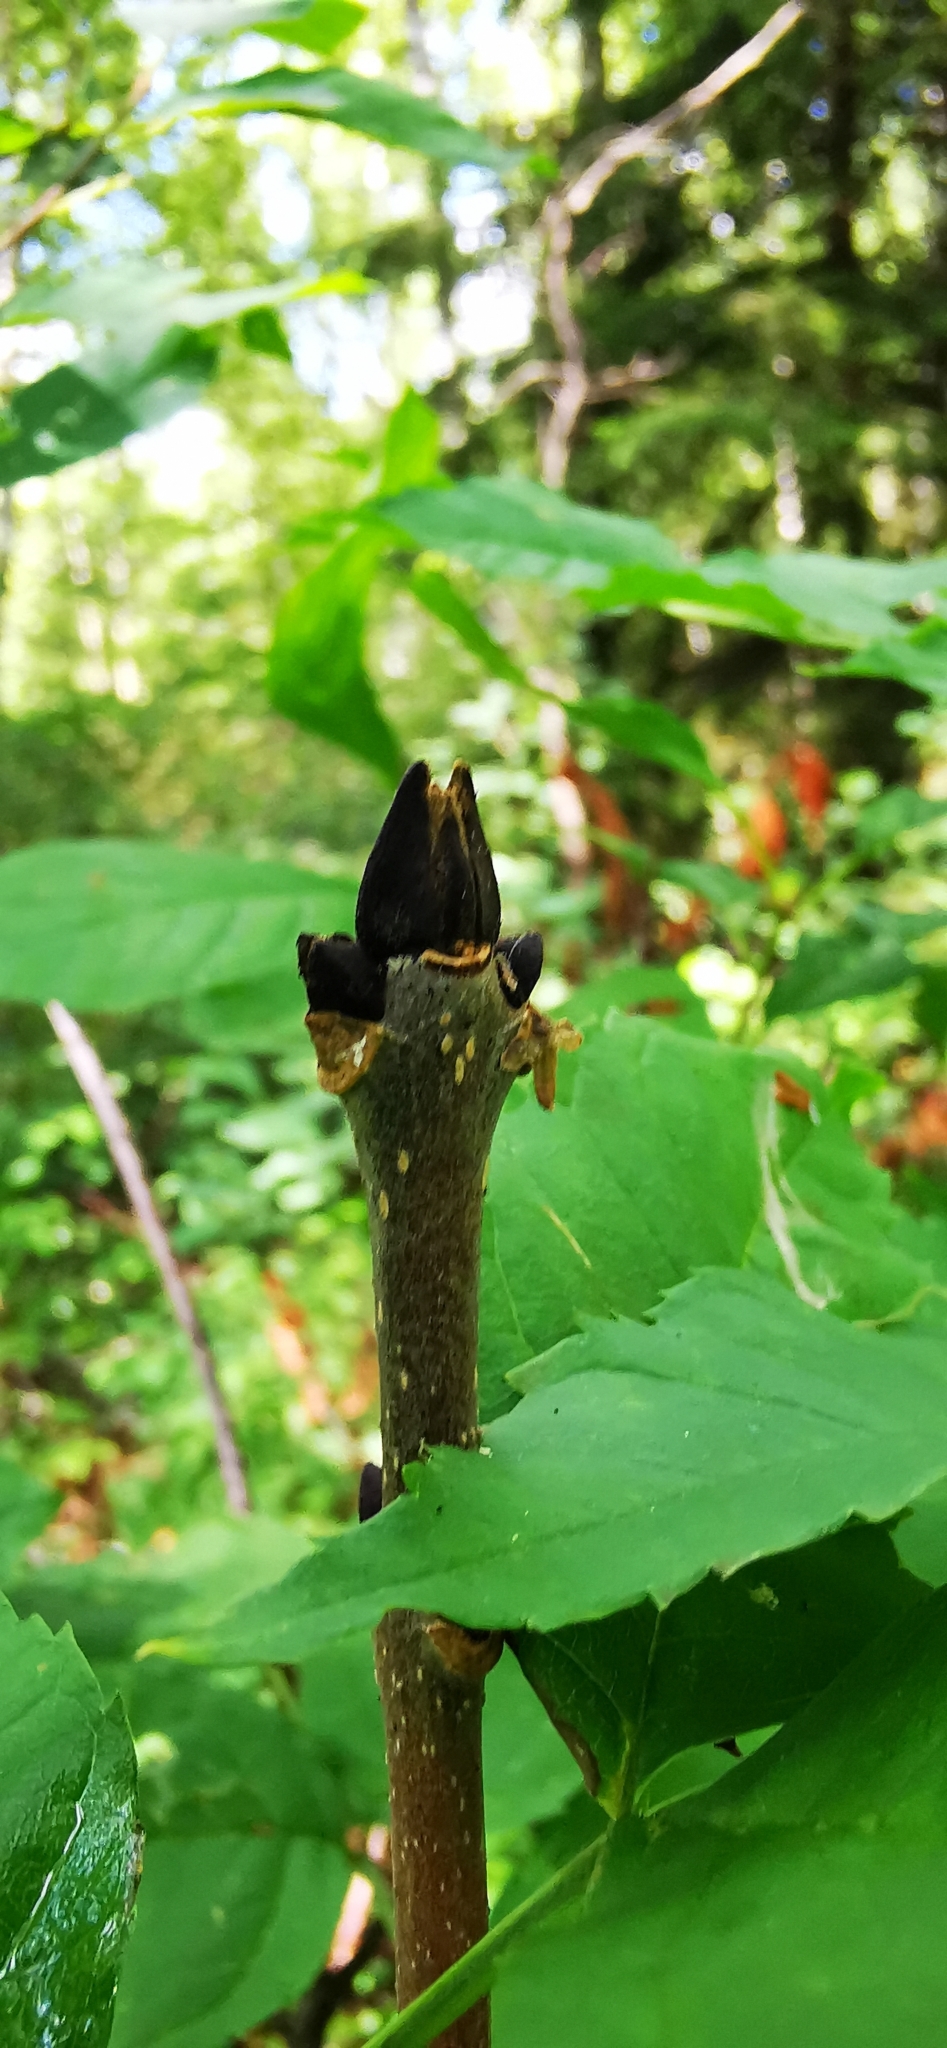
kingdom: Plantae
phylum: Tracheophyta
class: Magnoliopsida
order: Lamiales
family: Oleaceae
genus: Fraxinus
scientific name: Fraxinus excelsior
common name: European ash
